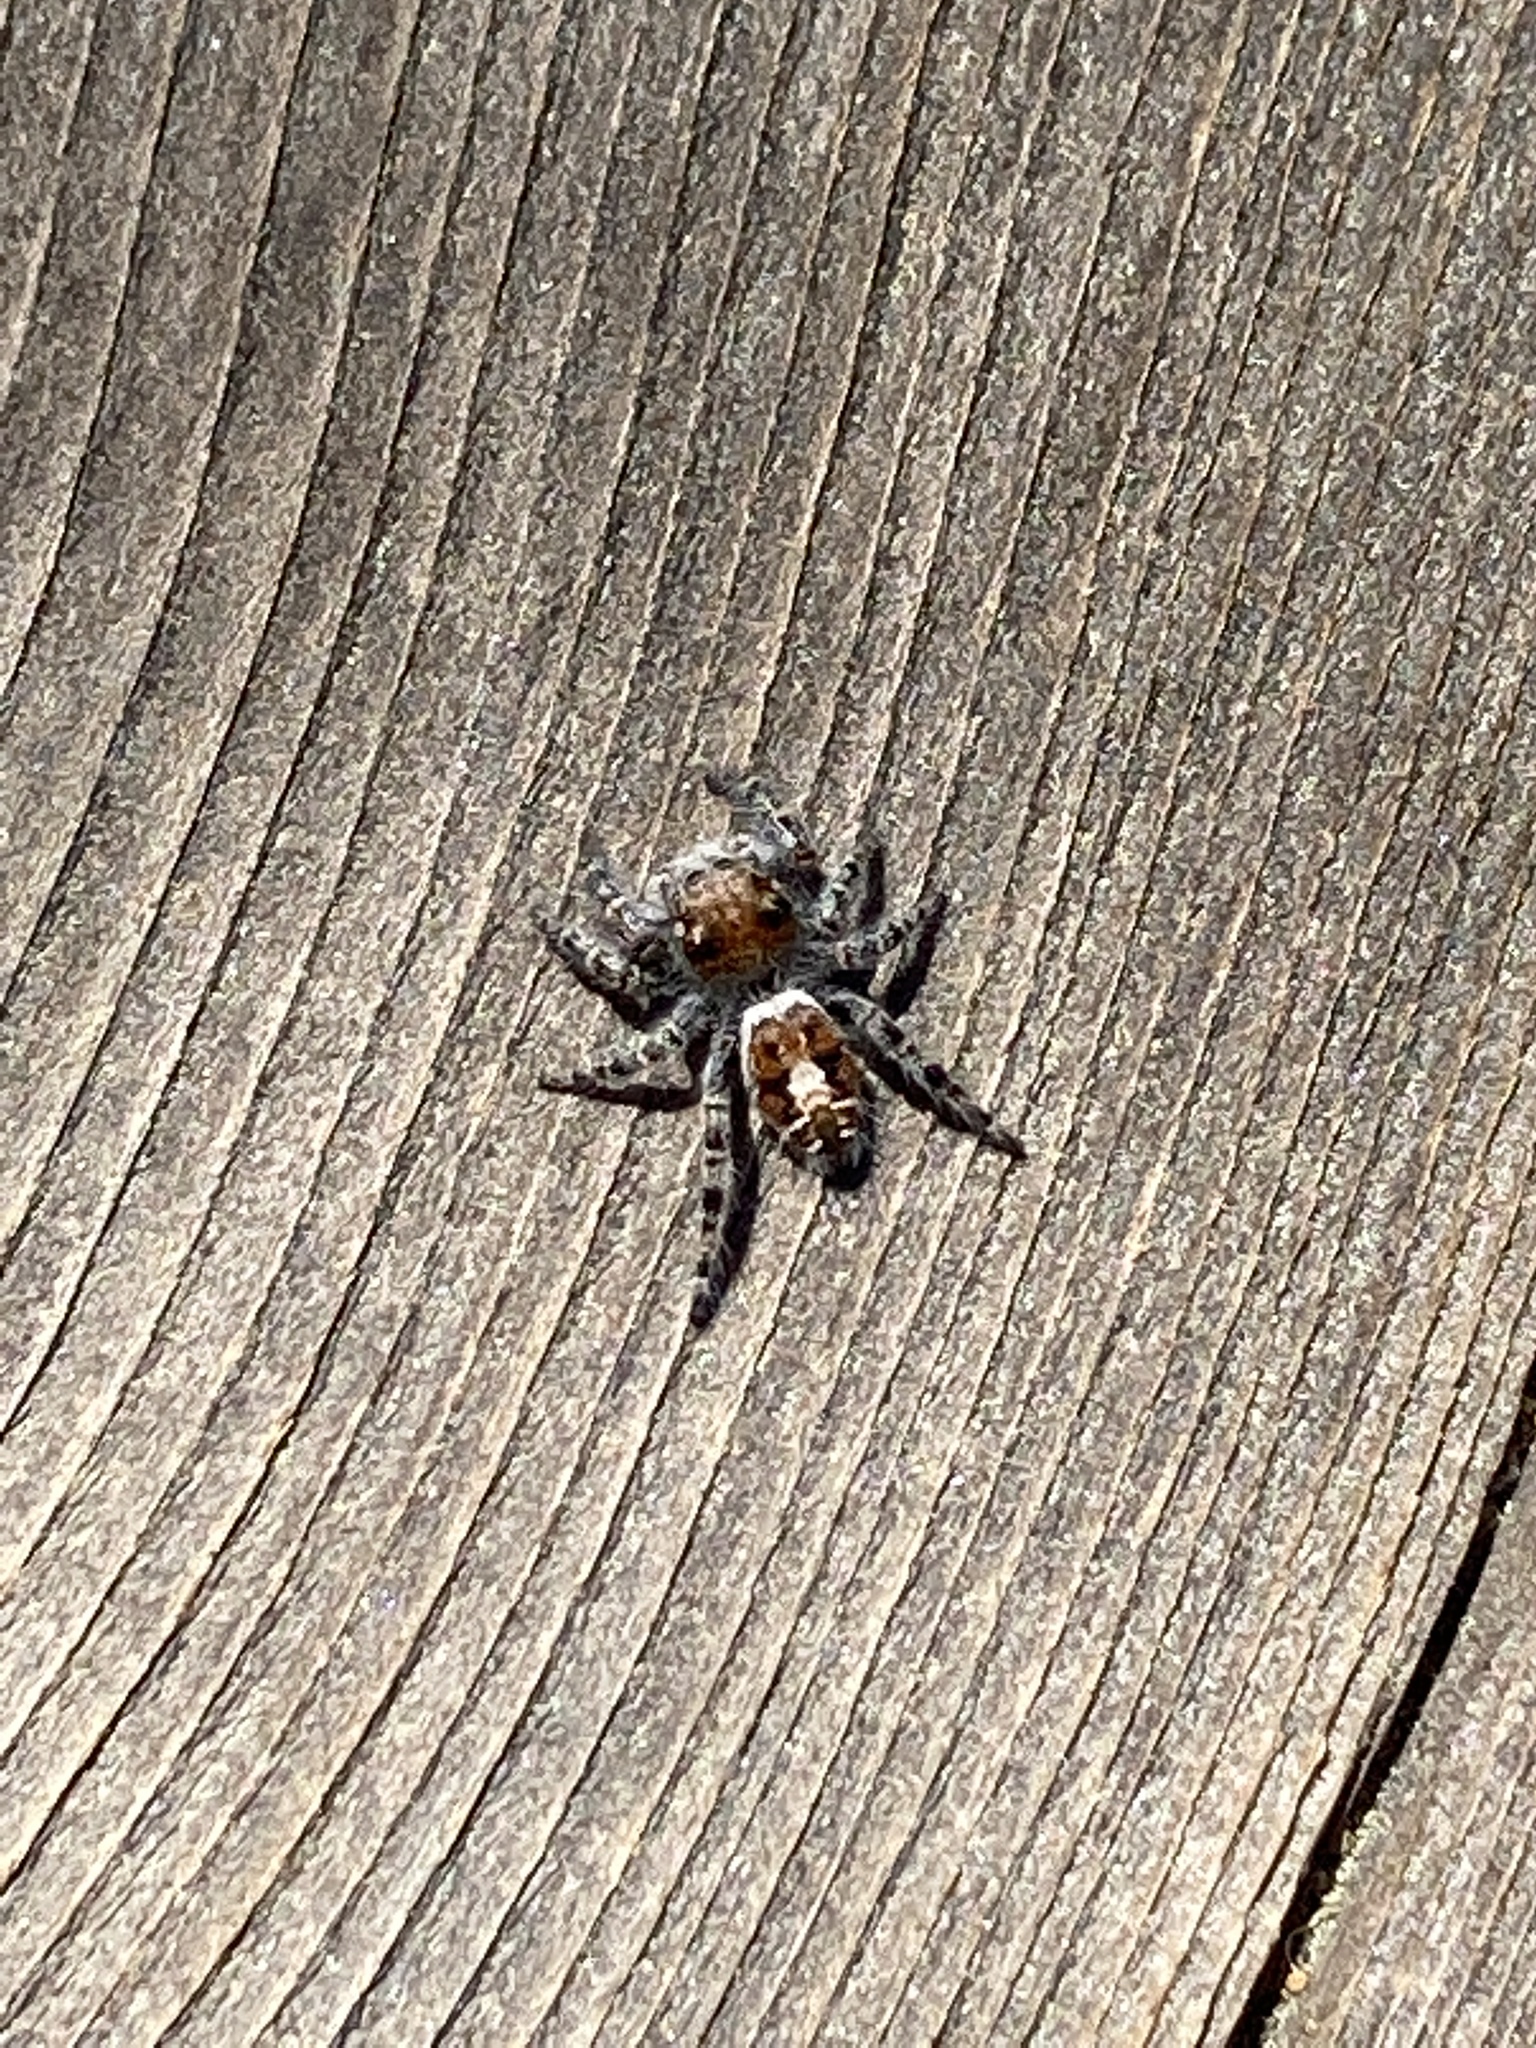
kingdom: Animalia
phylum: Arthropoda
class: Arachnida
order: Araneae
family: Salticidae
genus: Phidippus
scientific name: Phidippus comatus
